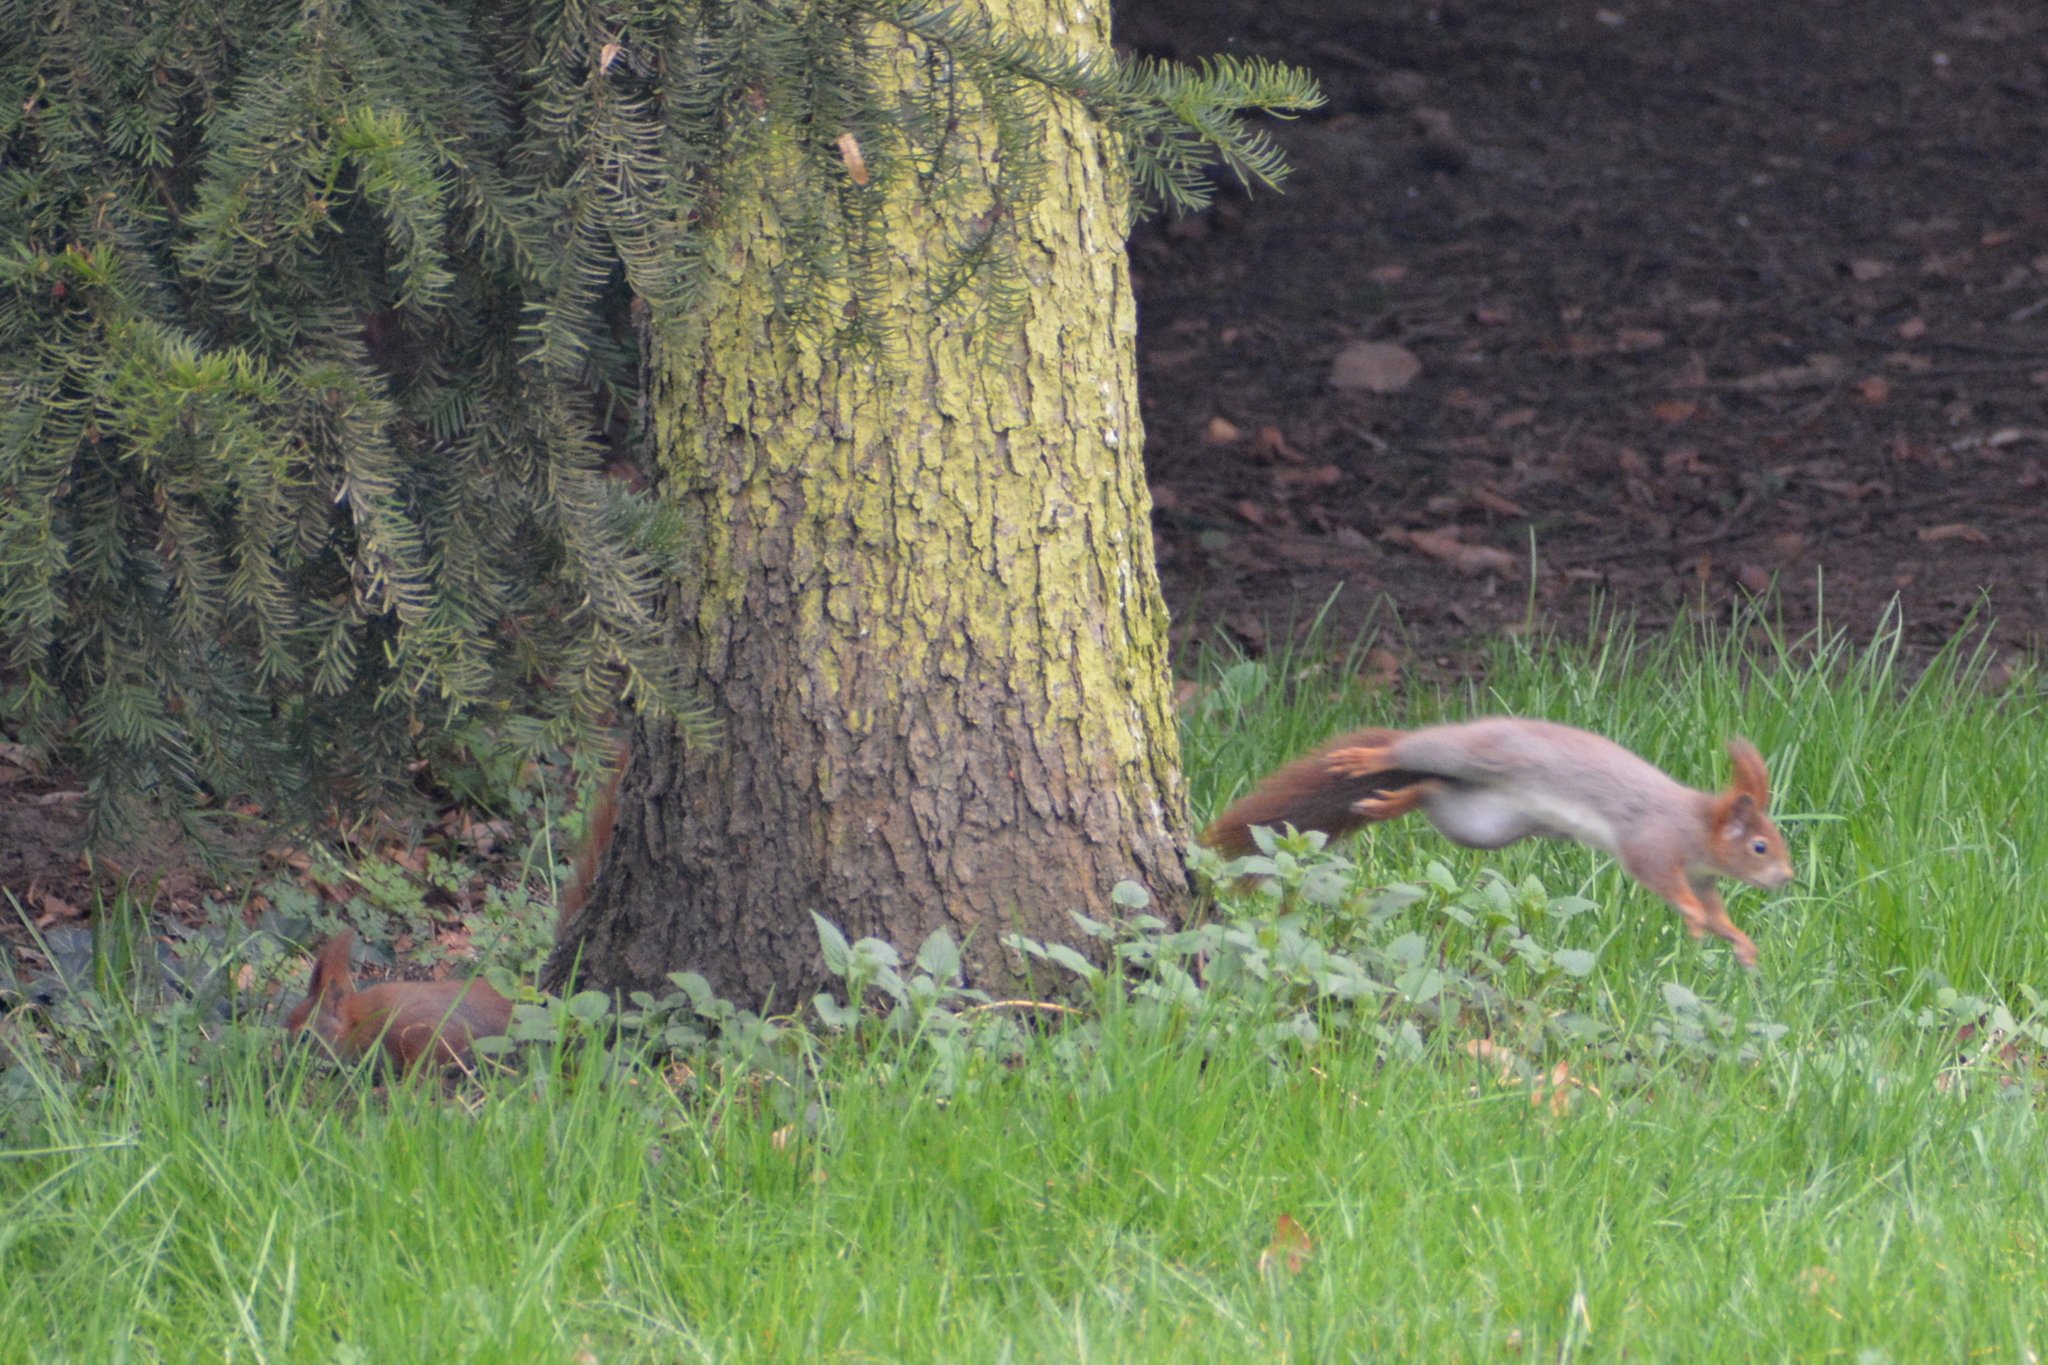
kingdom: Animalia
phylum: Chordata
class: Mammalia
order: Rodentia
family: Sciuridae
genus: Sciurus
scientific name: Sciurus vulgaris
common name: Eurasian red squirrel
